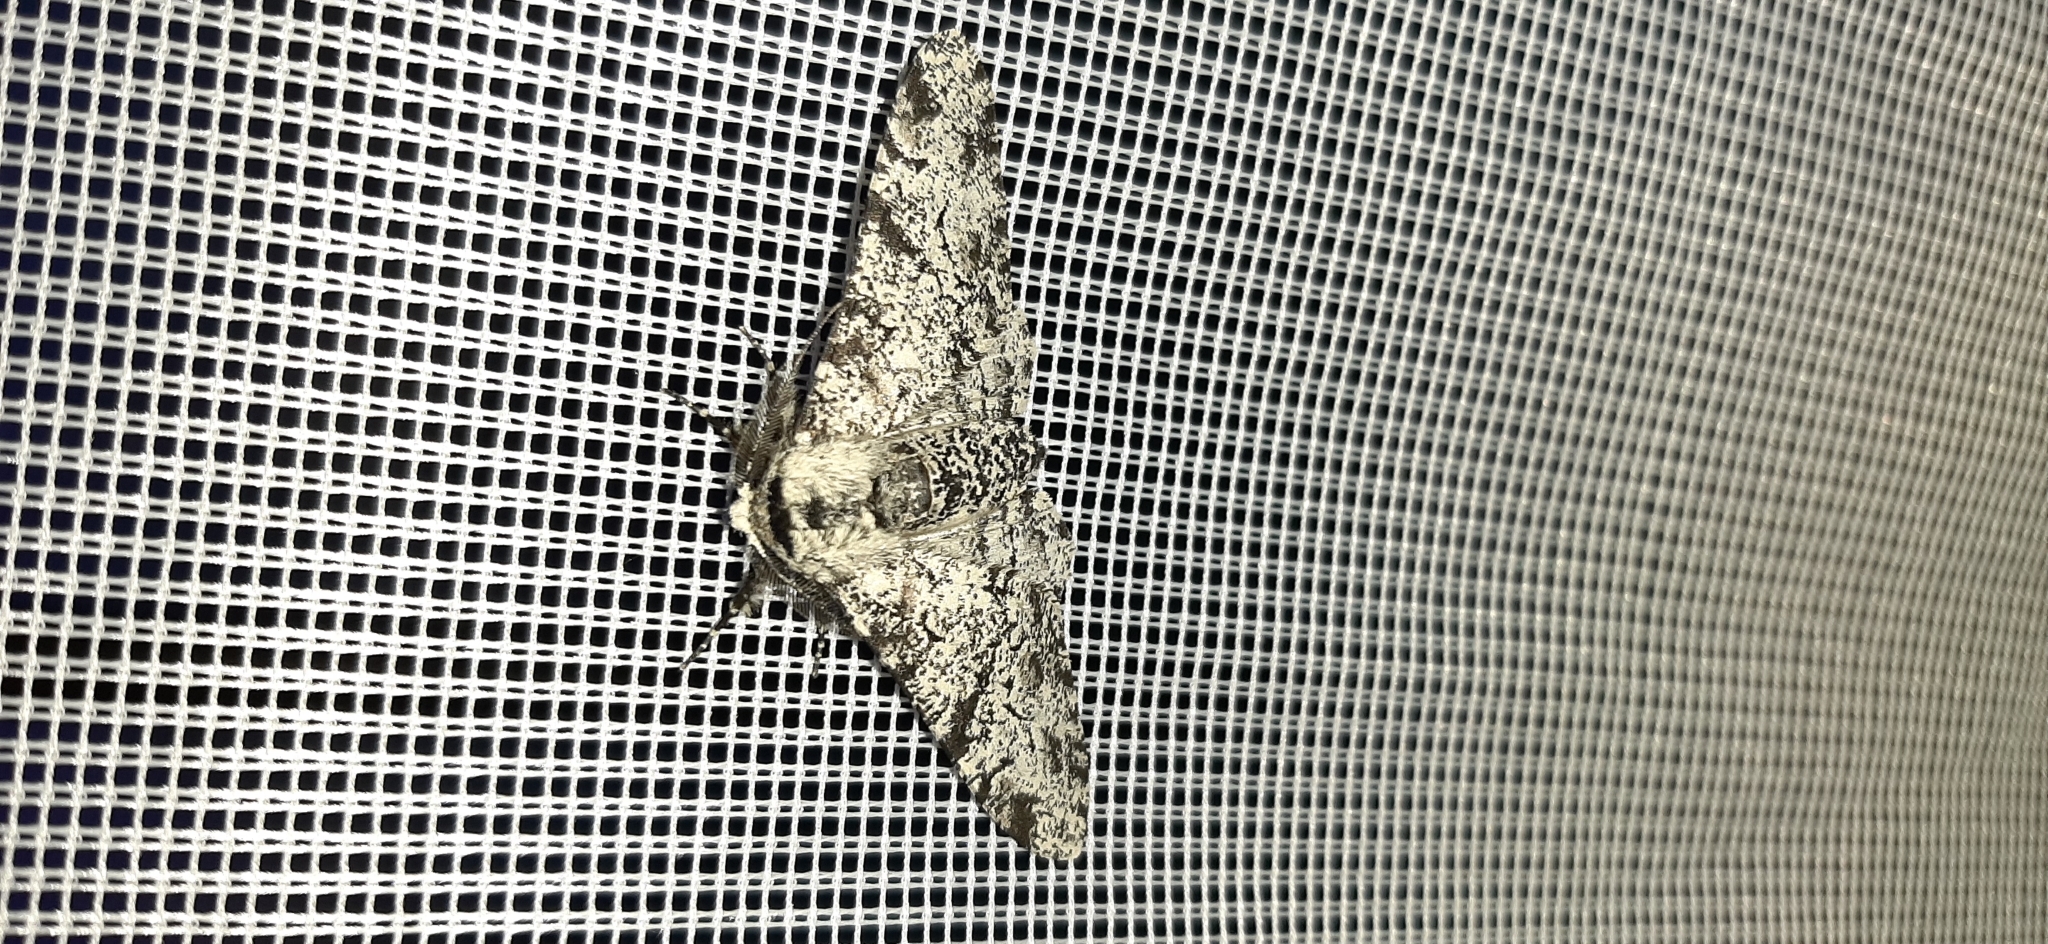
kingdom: Animalia
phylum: Arthropoda
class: Insecta
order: Lepidoptera
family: Geometridae
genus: Biston
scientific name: Biston betularia
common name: Peppered moth
